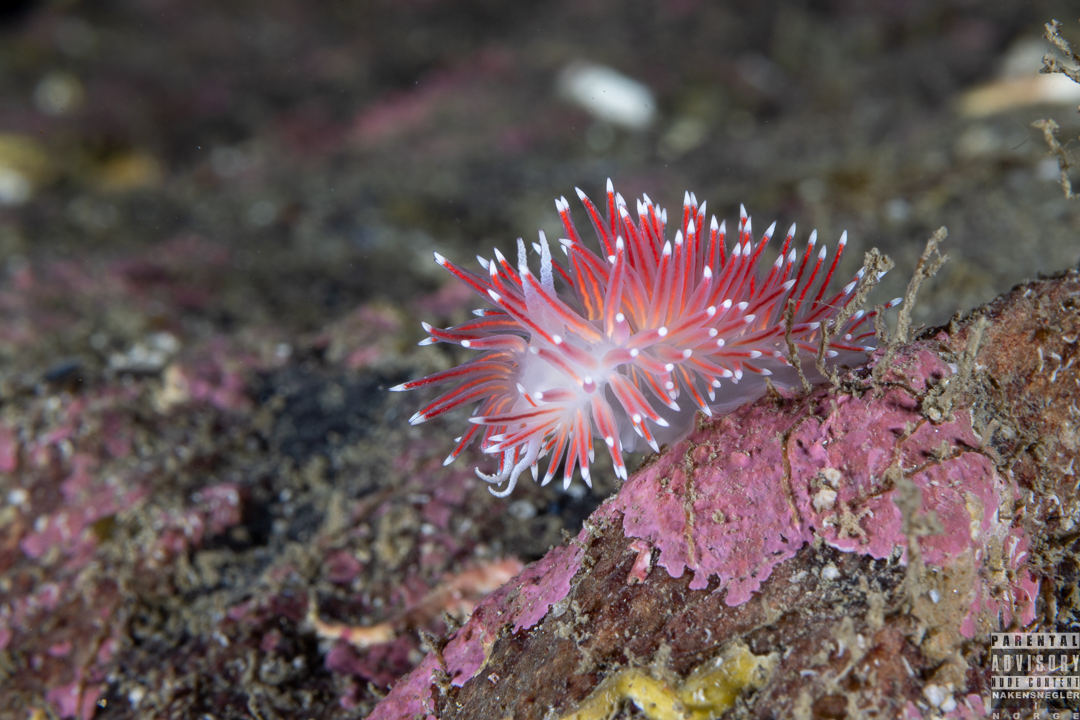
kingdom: Animalia
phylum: Mollusca
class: Gastropoda
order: Nudibranchia
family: Flabellinidae
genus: Carronella
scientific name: Carronella pellucida
